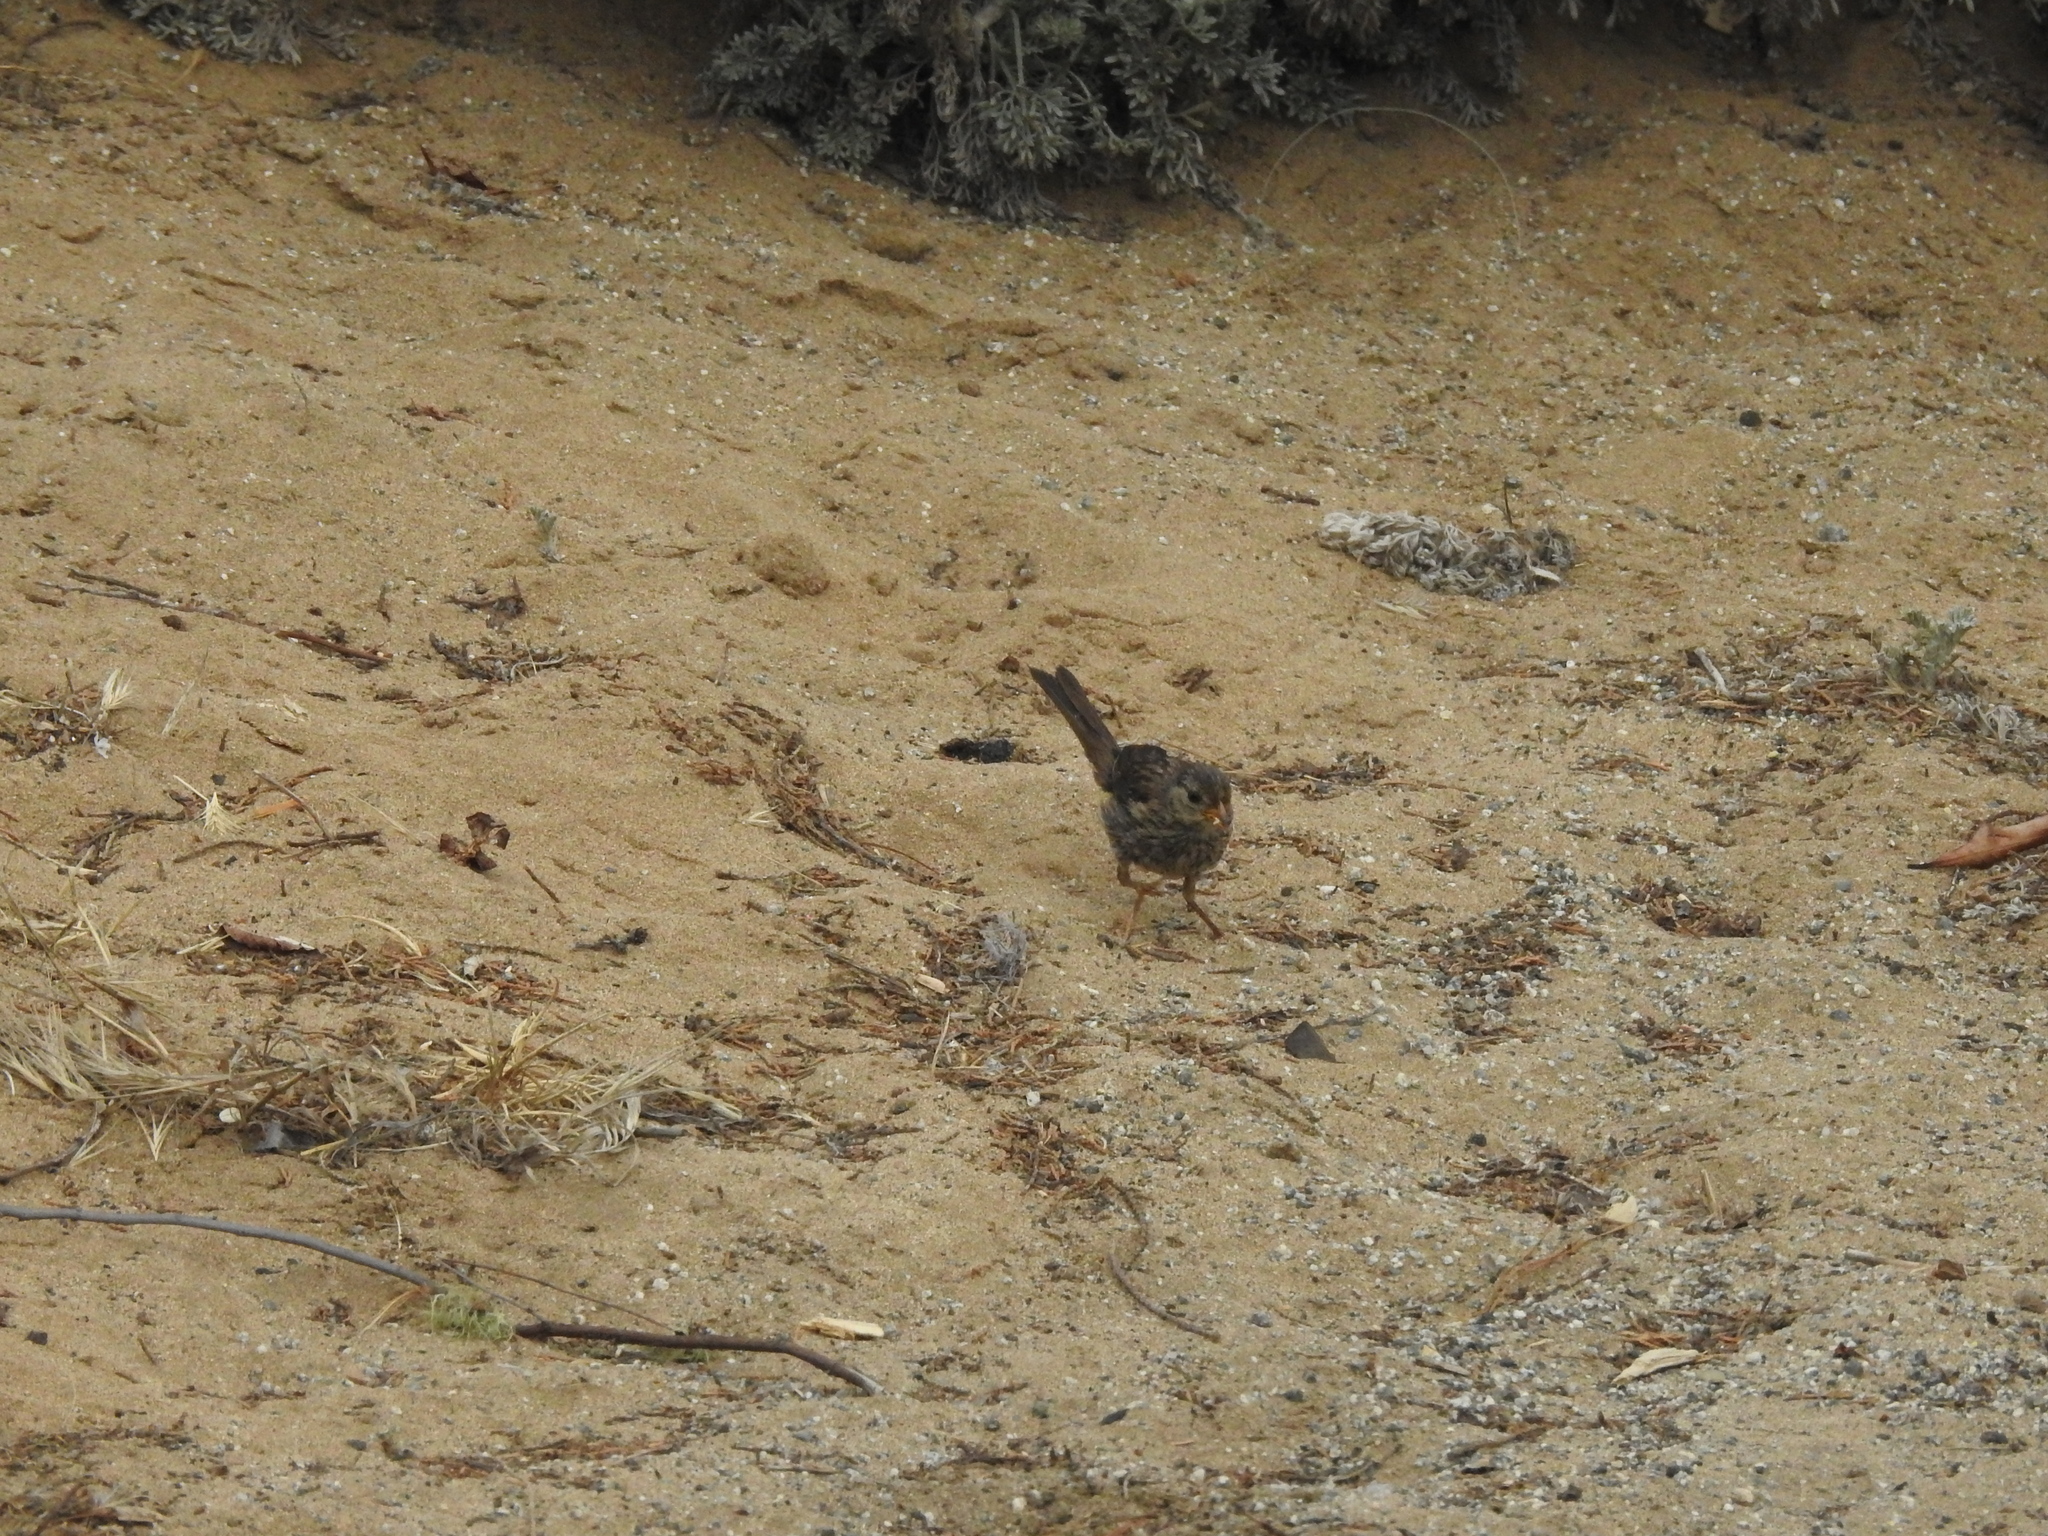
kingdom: Animalia
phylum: Chordata
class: Aves
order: Passeriformes
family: Passerellidae
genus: Zonotrichia
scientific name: Zonotrichia leucophrys
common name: White-crowned sparrow
